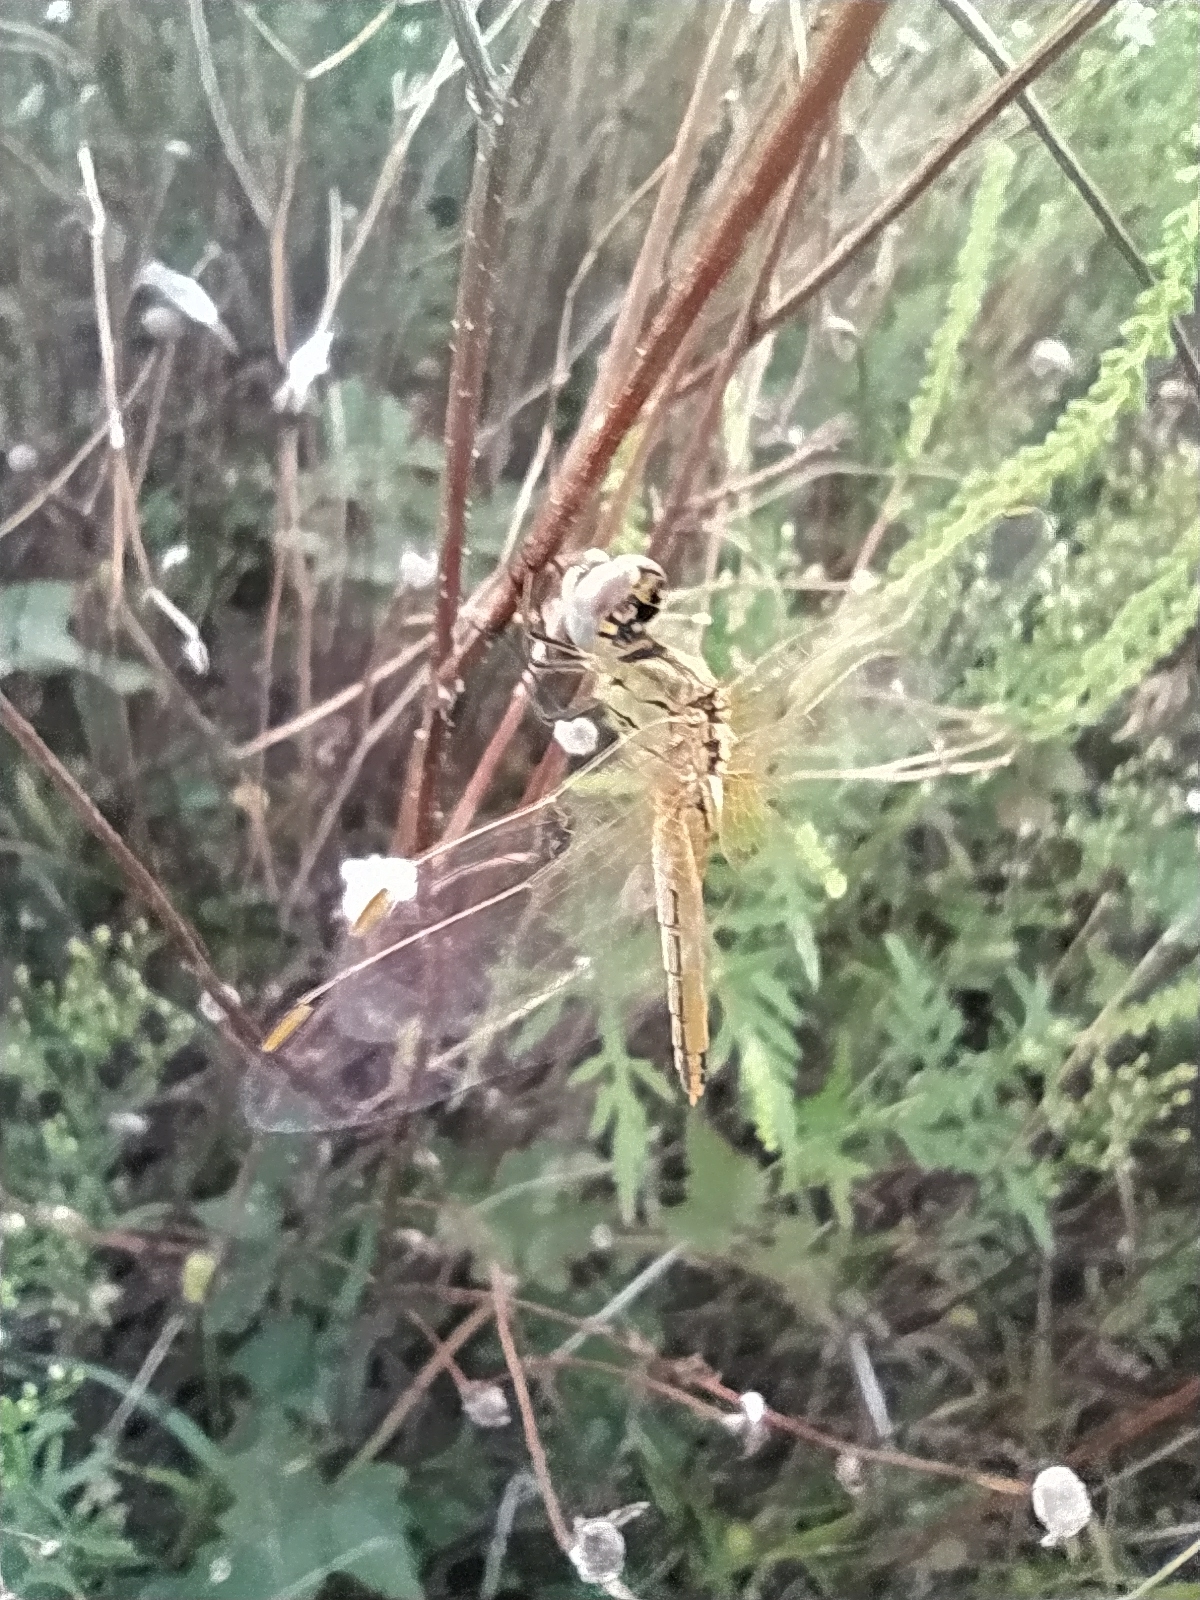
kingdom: Animalia
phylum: Arthropoda
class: Insecta
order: Odonata
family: Libellulidae
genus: Sympetrum
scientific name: Sympetrum fonscolombii
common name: Red-veined darter
